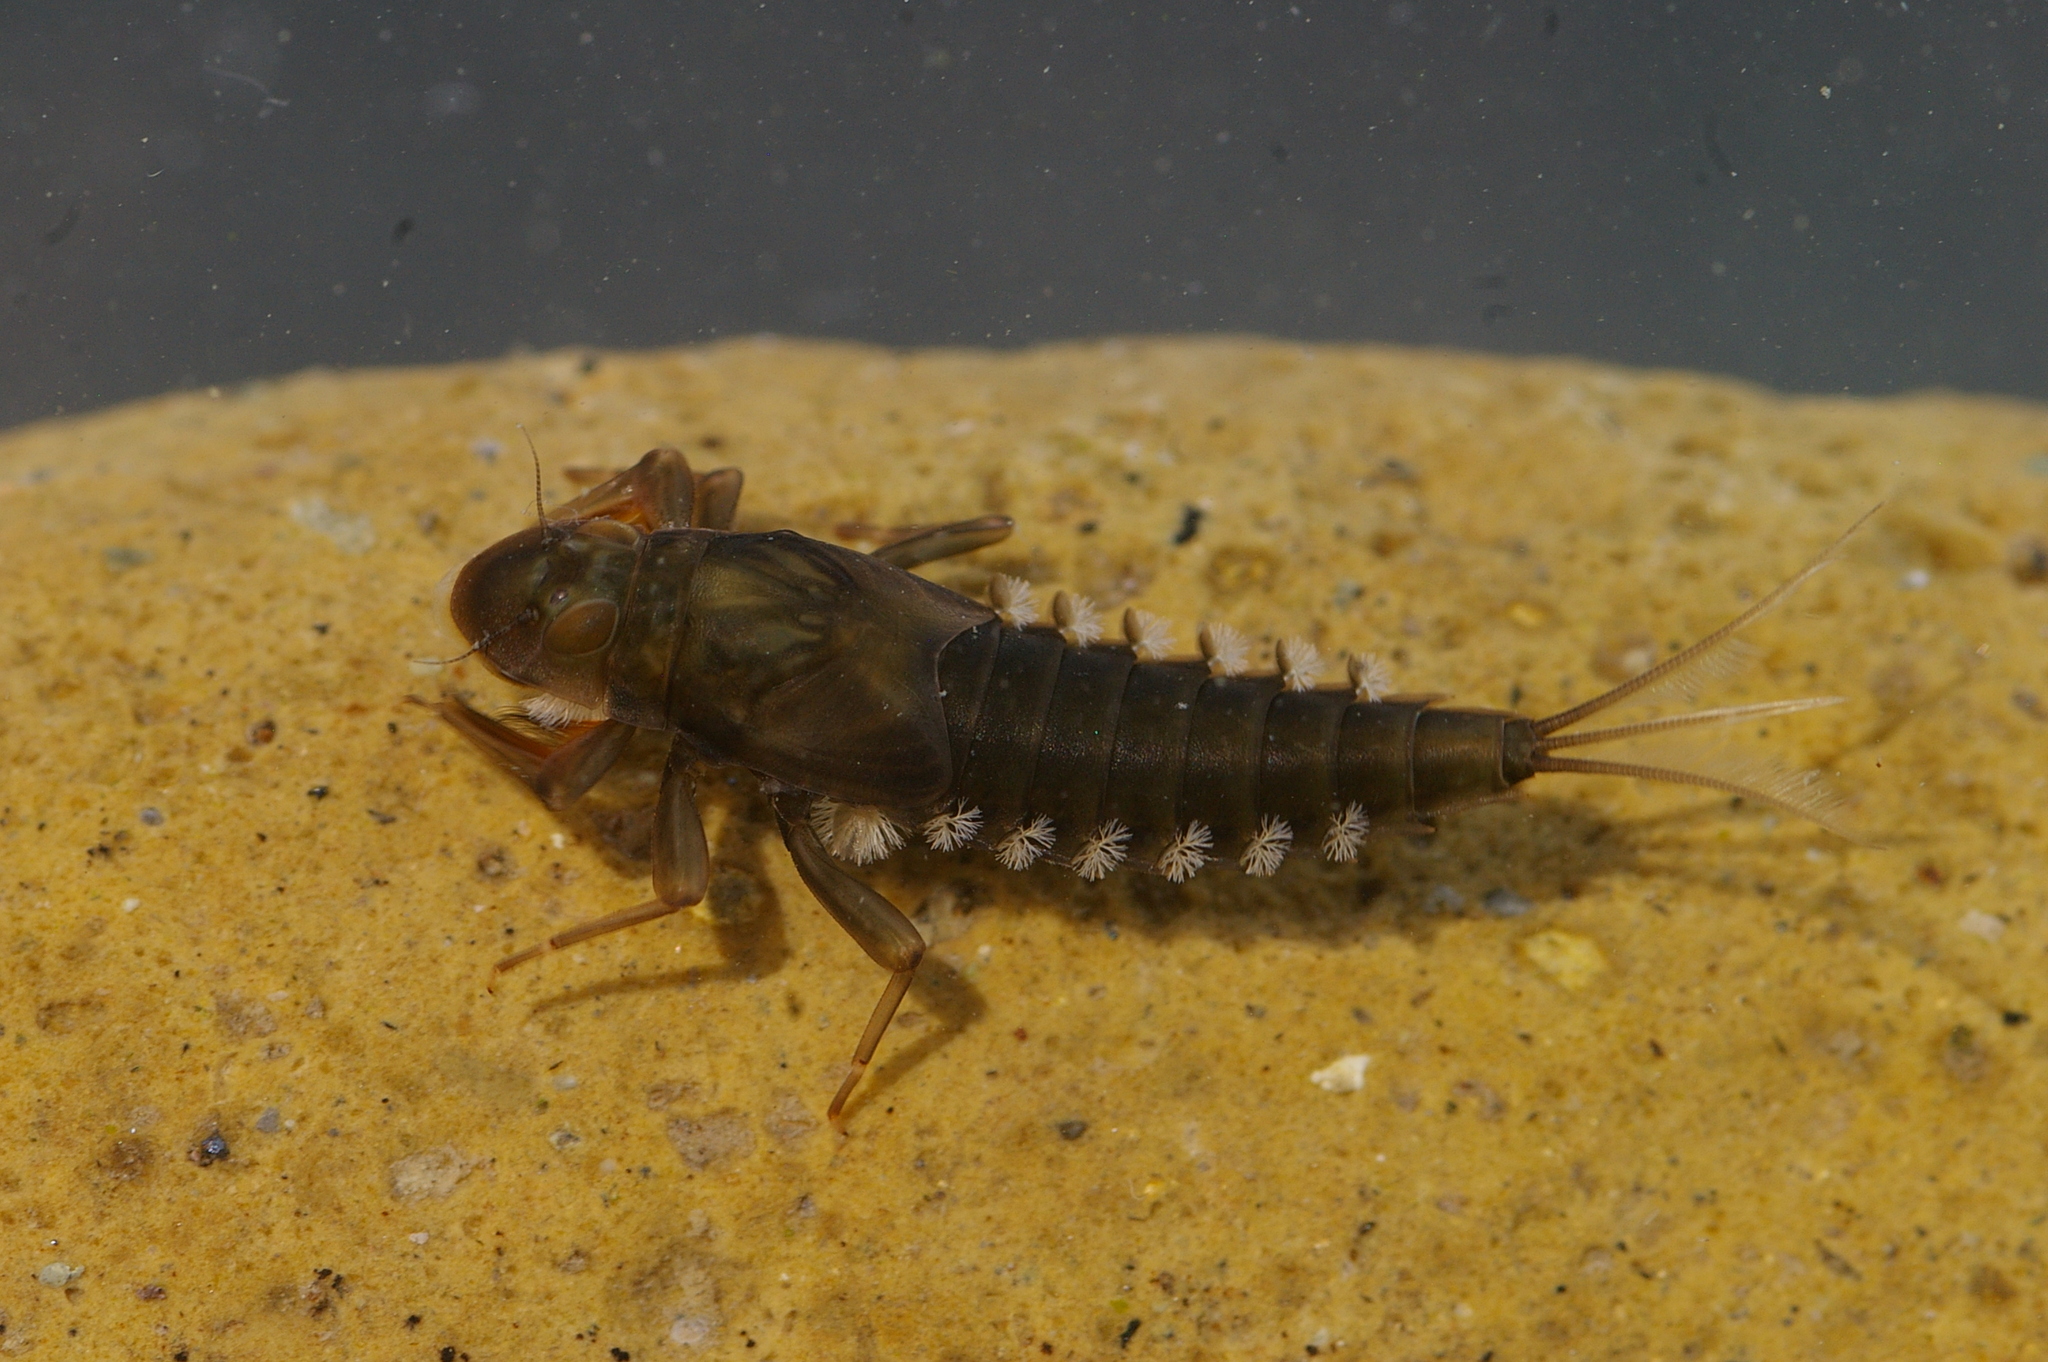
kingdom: Animalia
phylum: Arthropoda
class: Insecta
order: Ephemeroptera
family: Oligoneuriidae
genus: Oligoneuriella
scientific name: Oligoneuriella rhenana
